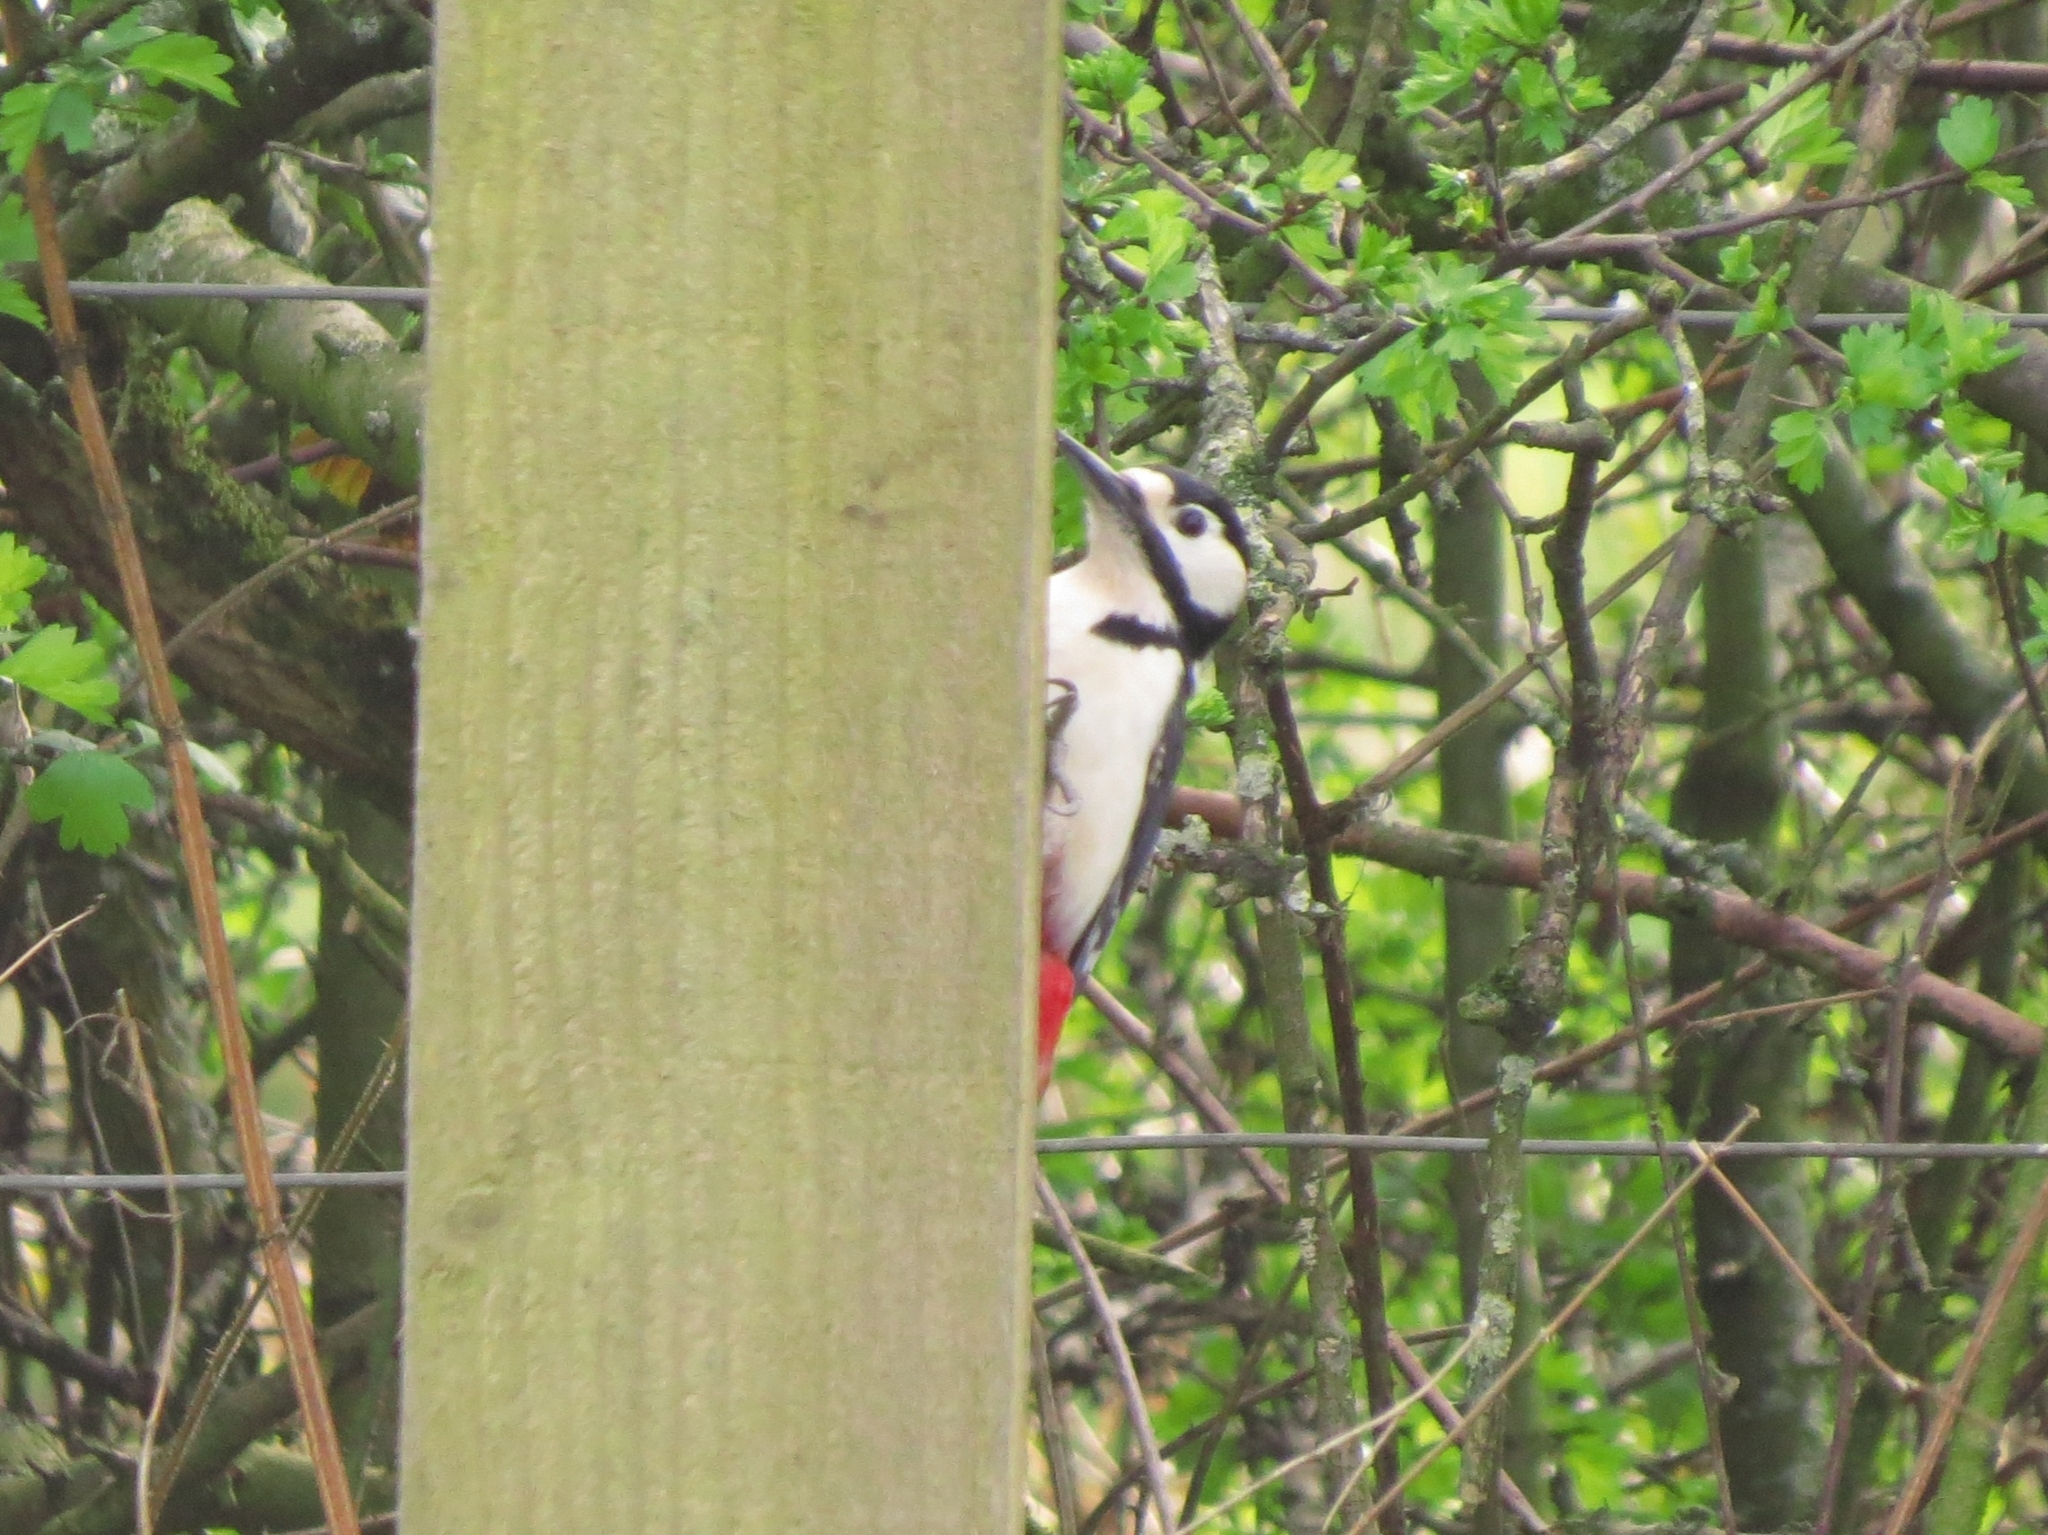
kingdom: Animalia
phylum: Chordata
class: Aves
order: Piciformes
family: Picidae
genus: Dendrocopos
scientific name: Dendrocopos major
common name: Great spotted woodpecker
